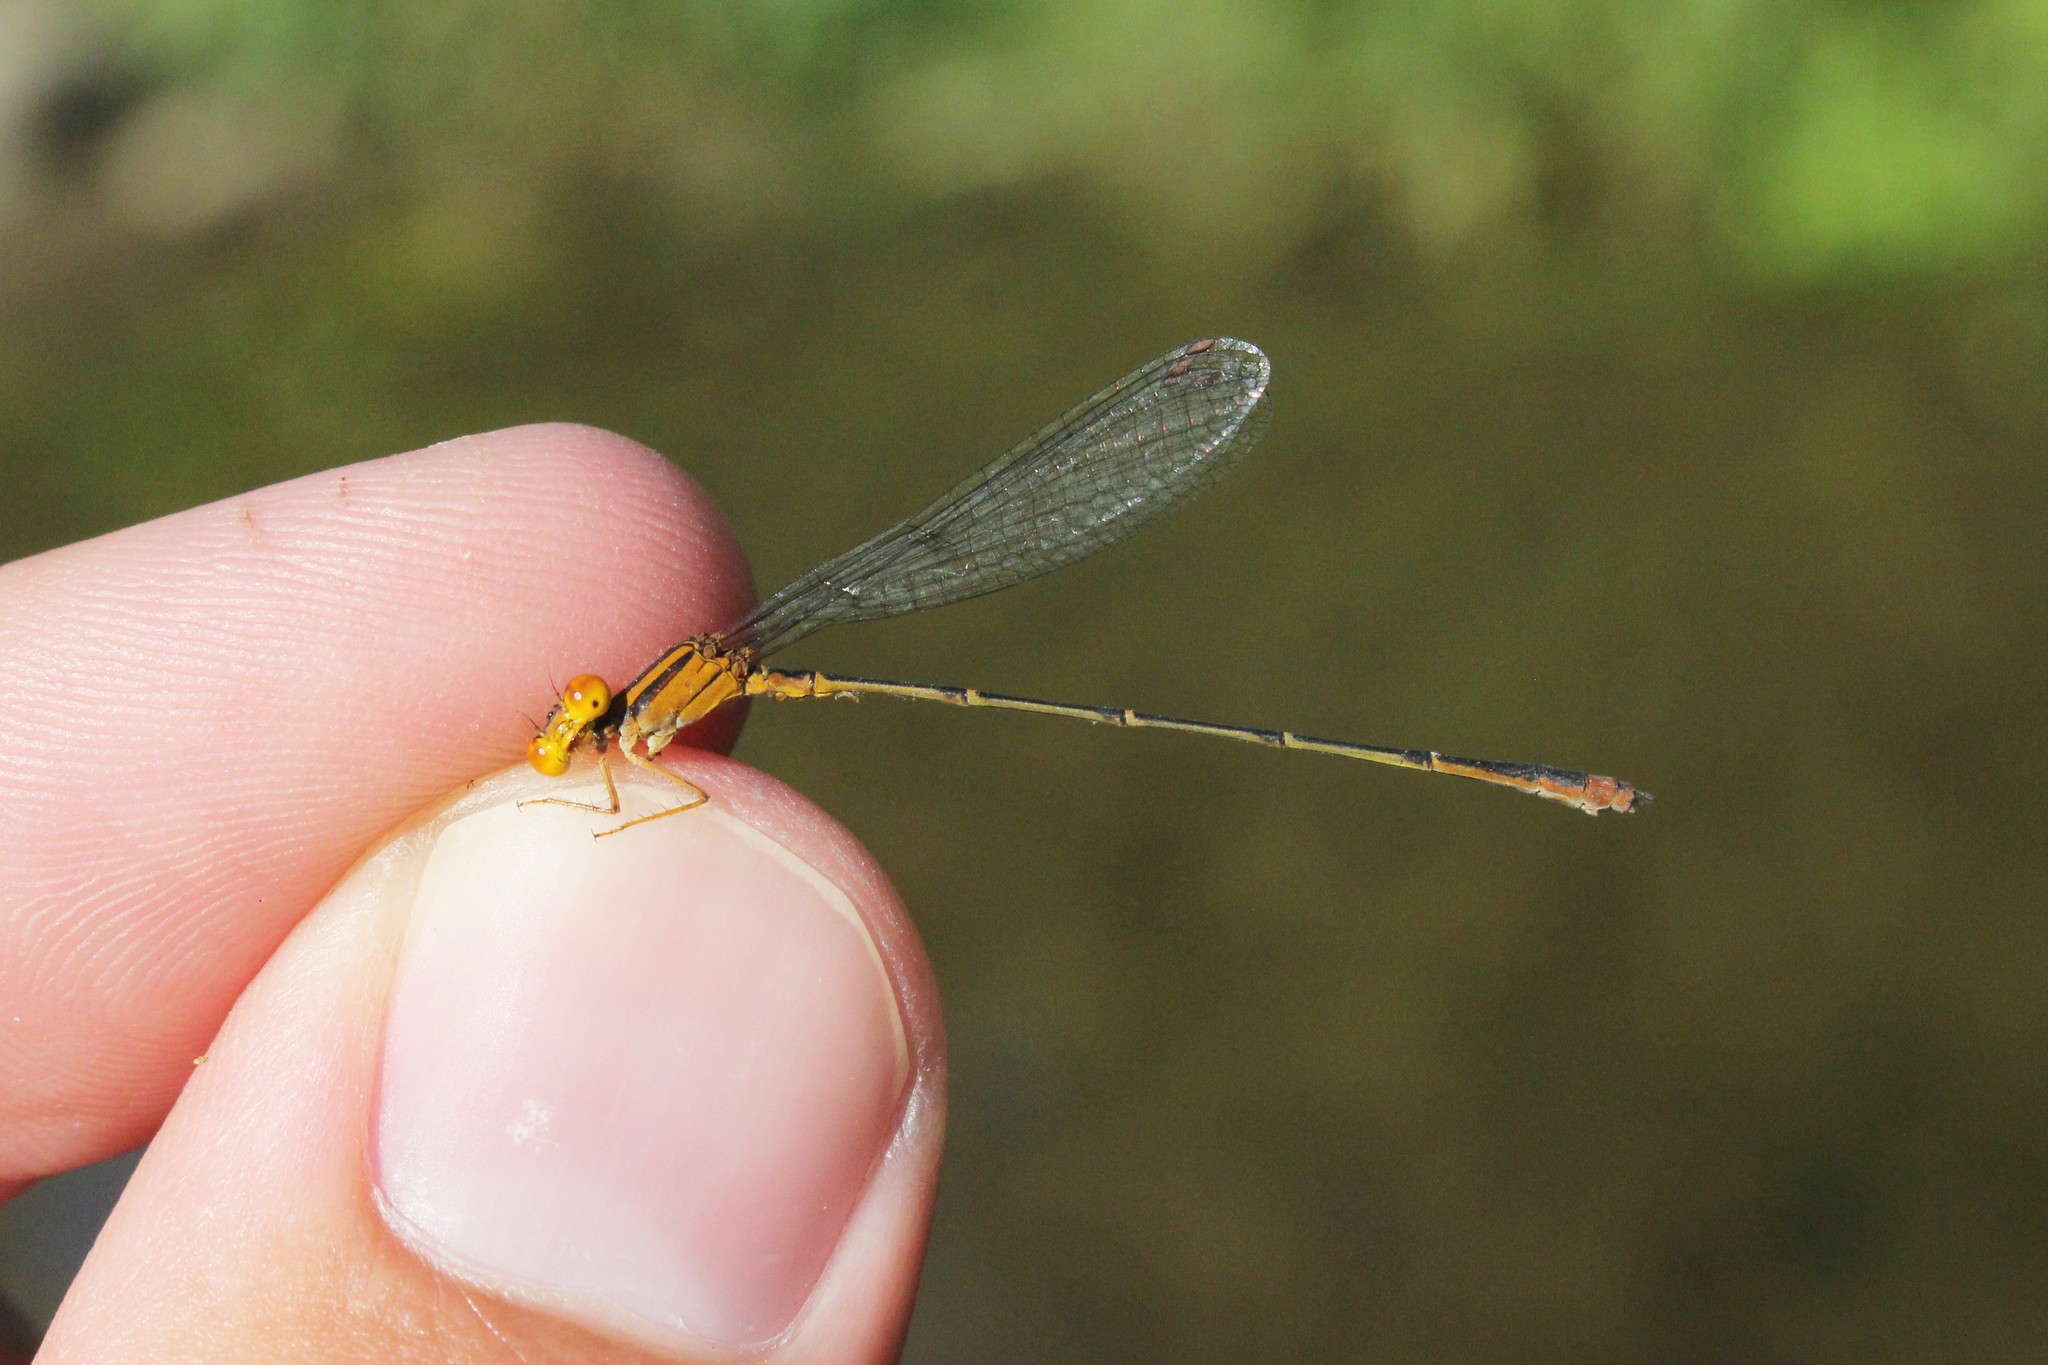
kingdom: Animalia
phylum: Arthropoda
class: Insecta
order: Odonata
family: Coenagrionidae
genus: Enallagma
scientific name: Enallagma signatum
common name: Orange bluet
